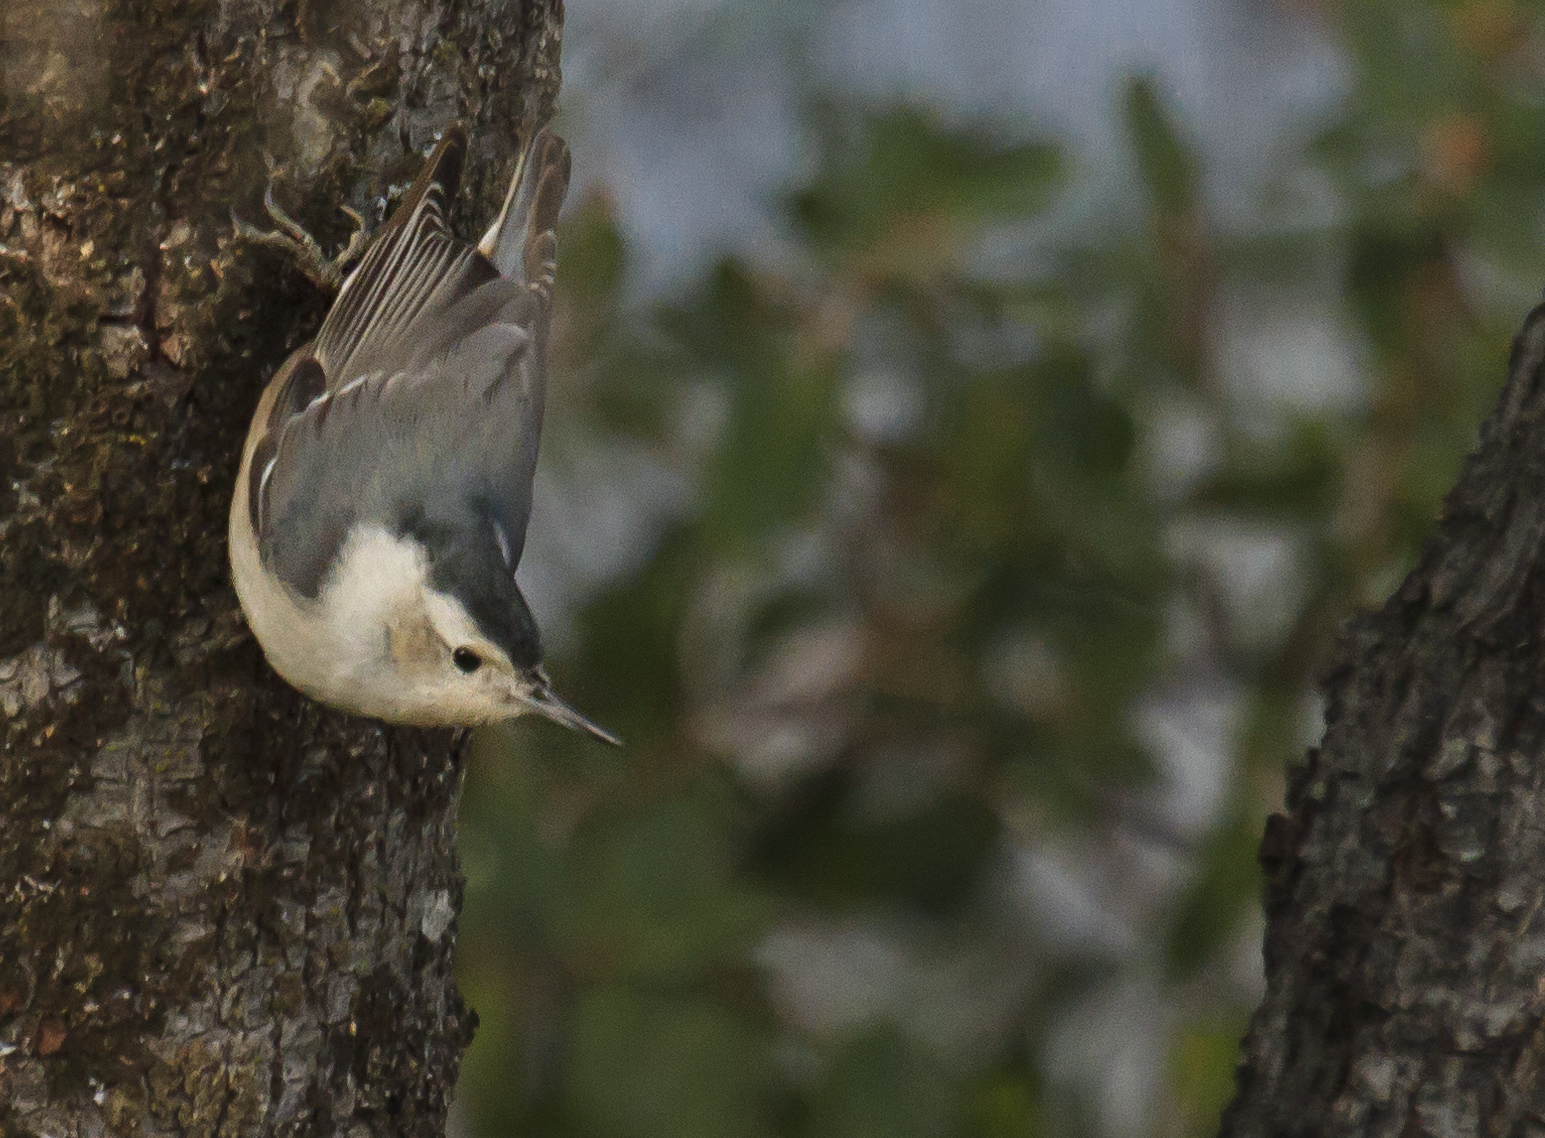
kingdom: Animalia
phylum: Chordata
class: Aves
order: Passeriformes
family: Sittidae
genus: Sitta
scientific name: Sitta carolinensis
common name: White-breasted nuthatch
